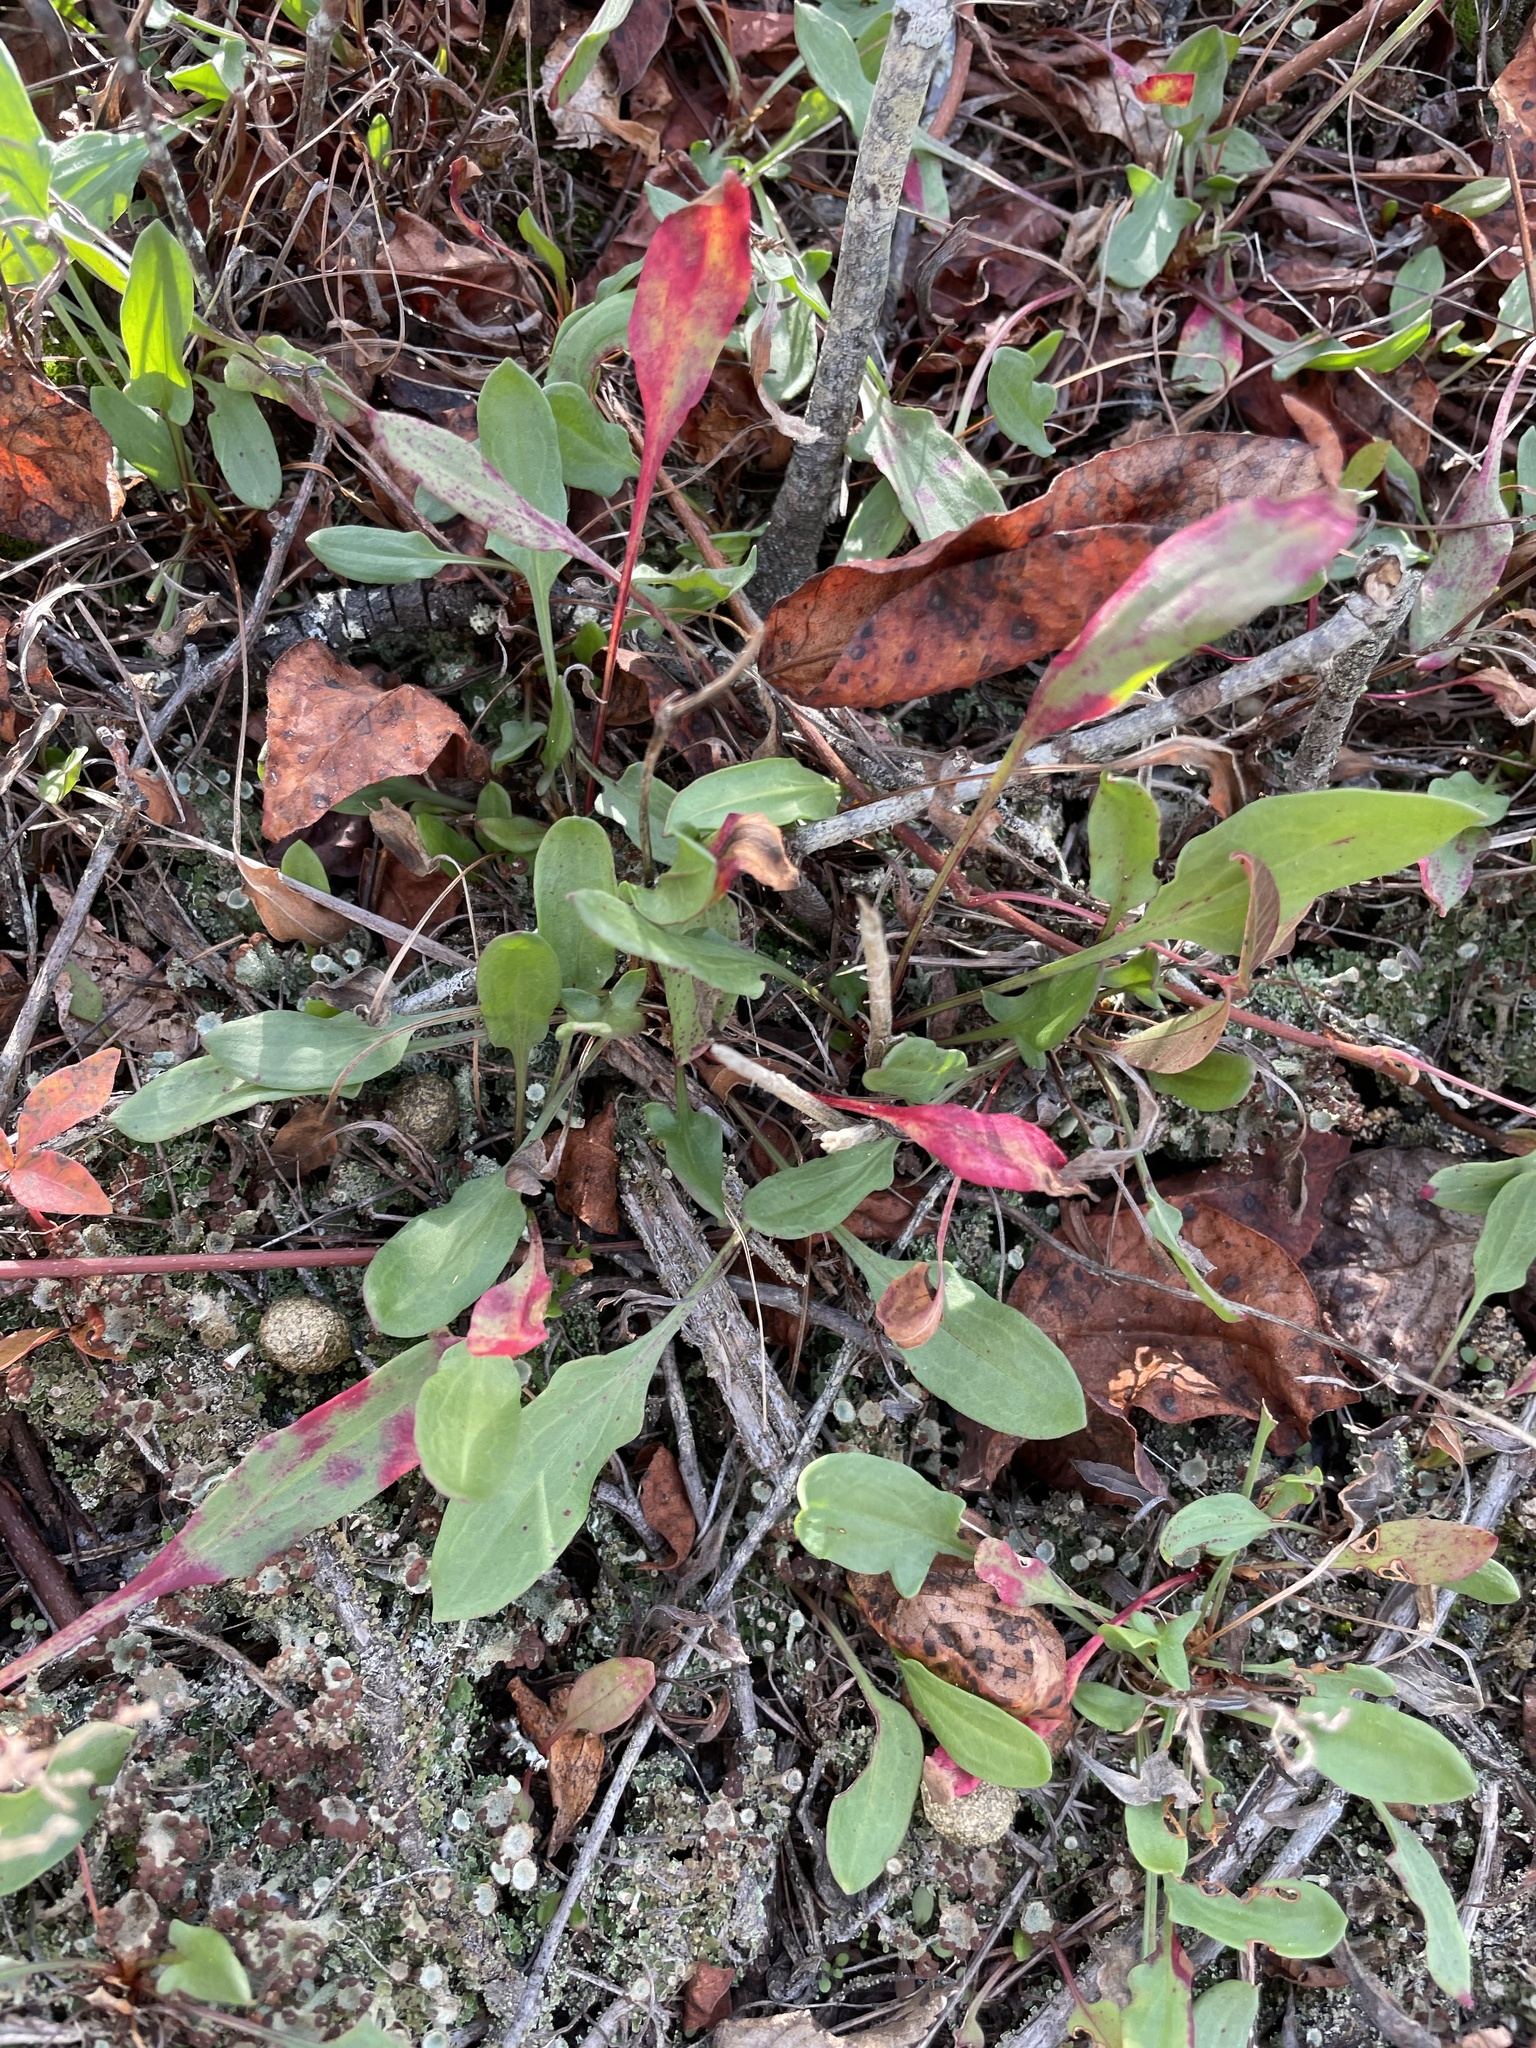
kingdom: Plantae
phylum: Tracheophyta
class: Magnoliopsida
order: Caryophyllales
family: Polygonaceae
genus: Rumex
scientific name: Rumex acetosella
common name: Common sheep sorrel
